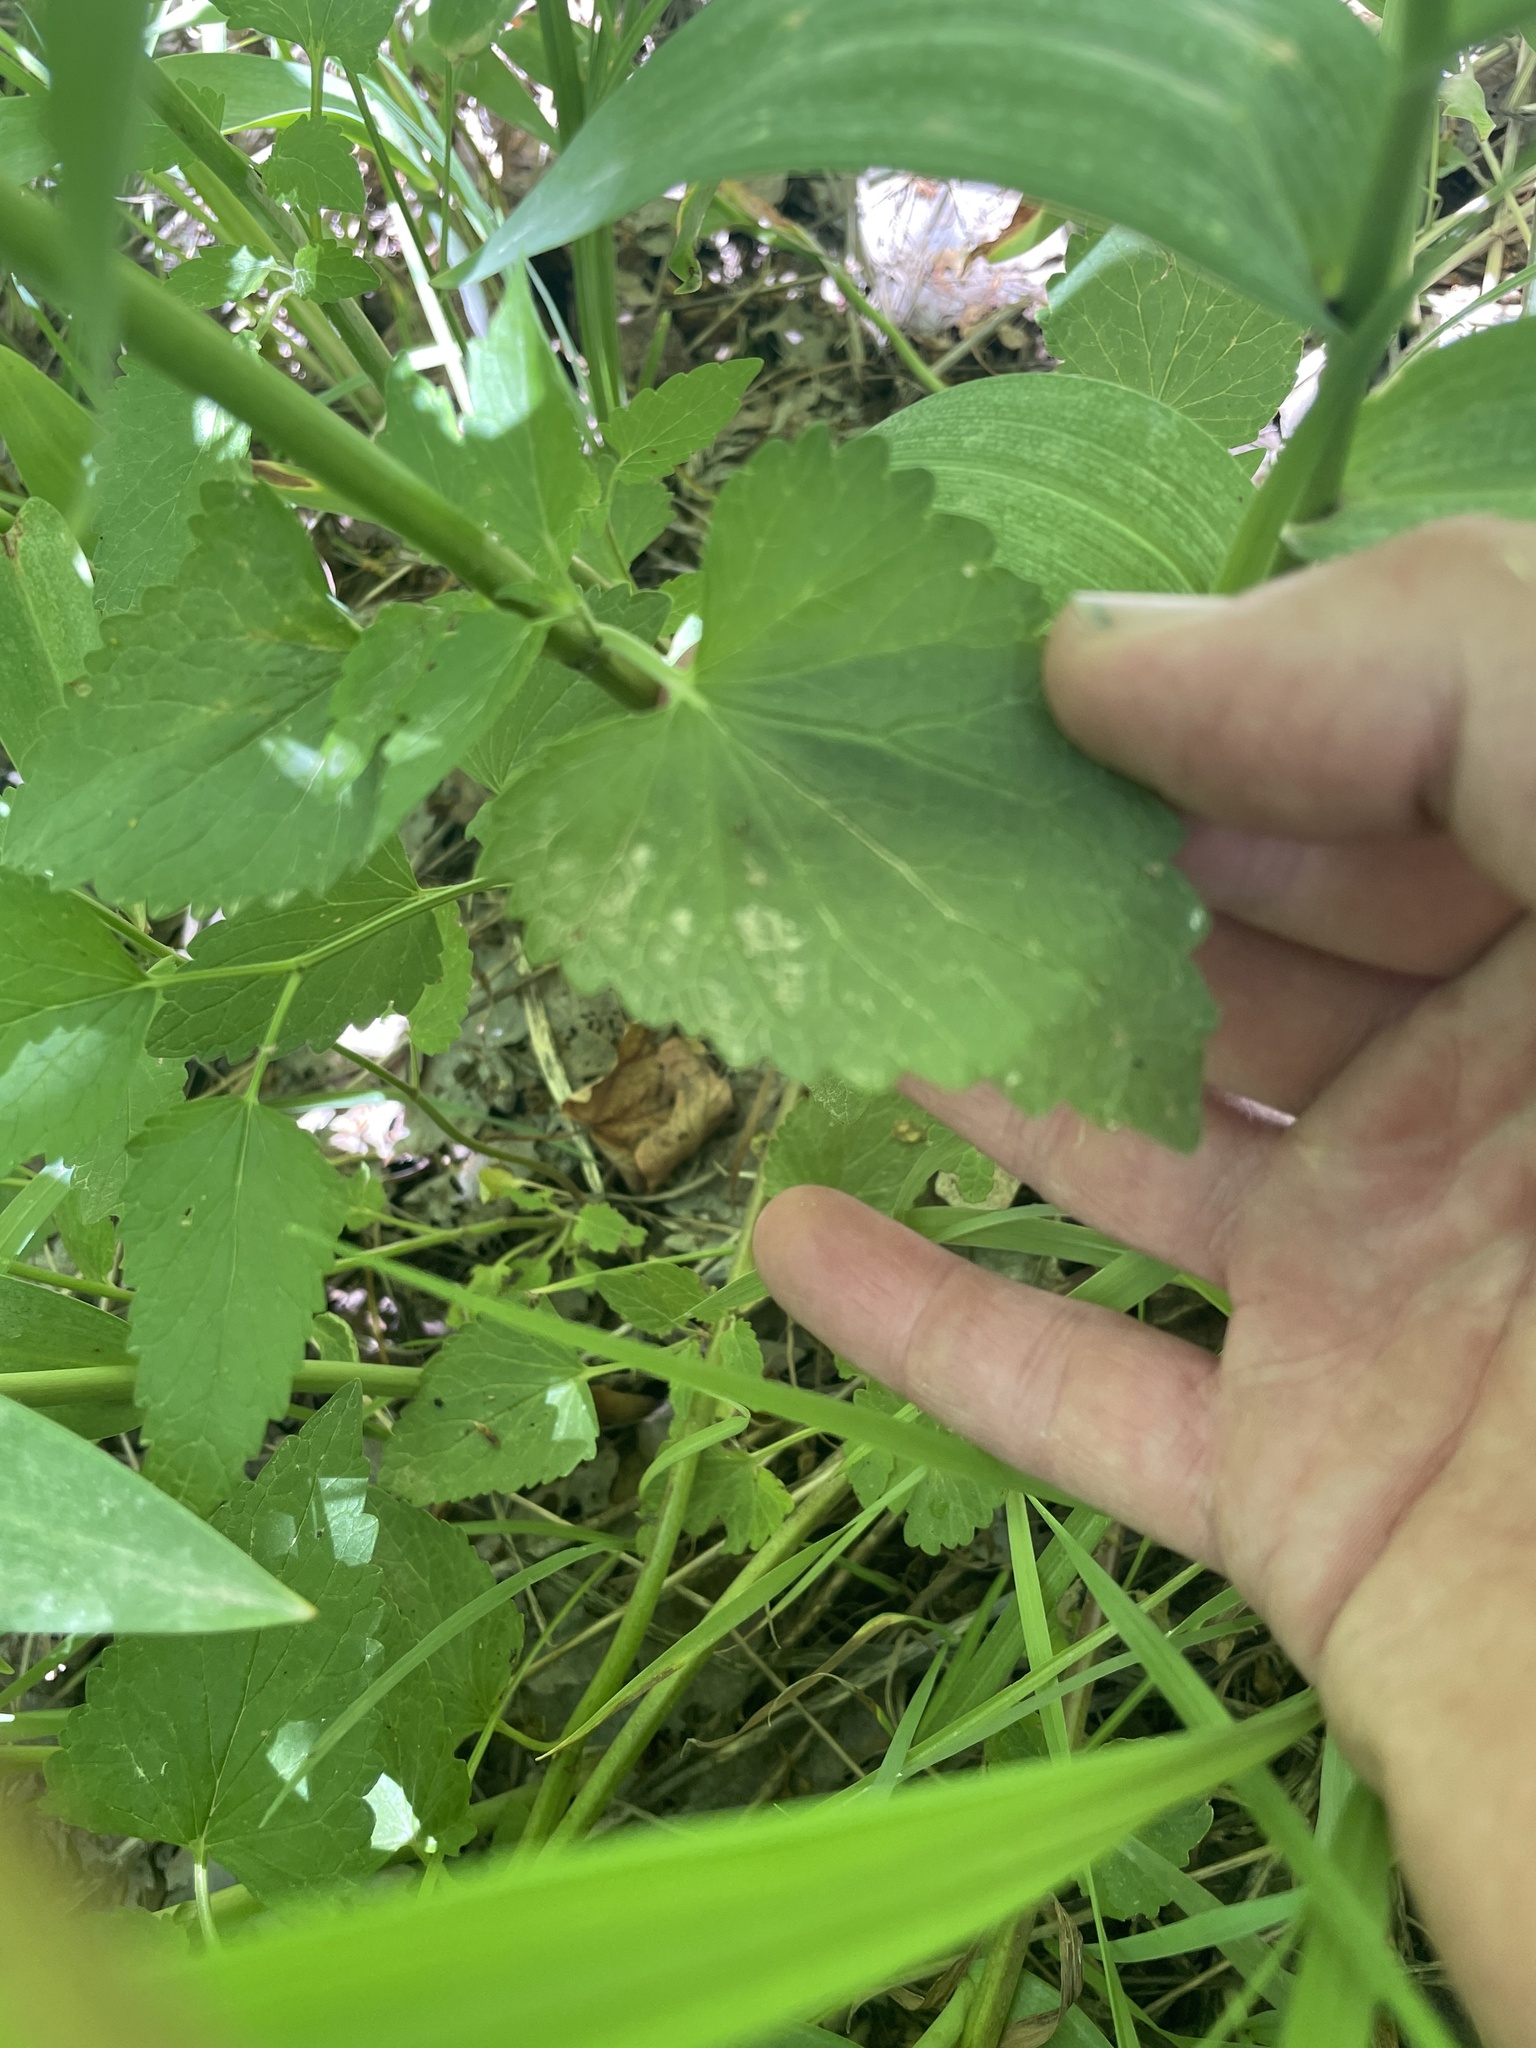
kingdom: Plantae
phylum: Tracheophyta
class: Magnoliopsida
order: Lamiales
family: Lamiaceae
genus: Agastache
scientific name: Agastache urticifolia
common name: Horsemint giant hyssop
